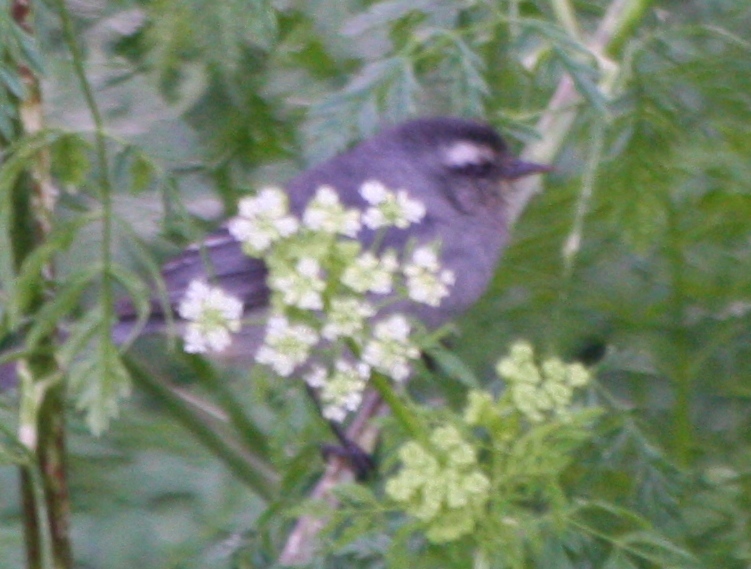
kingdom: Animalia
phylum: Chordata
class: Aves
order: Passeriformes
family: Thraupidae
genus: Conirostrum
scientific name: Conirostrum cinereum
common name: Cinereous conebill
